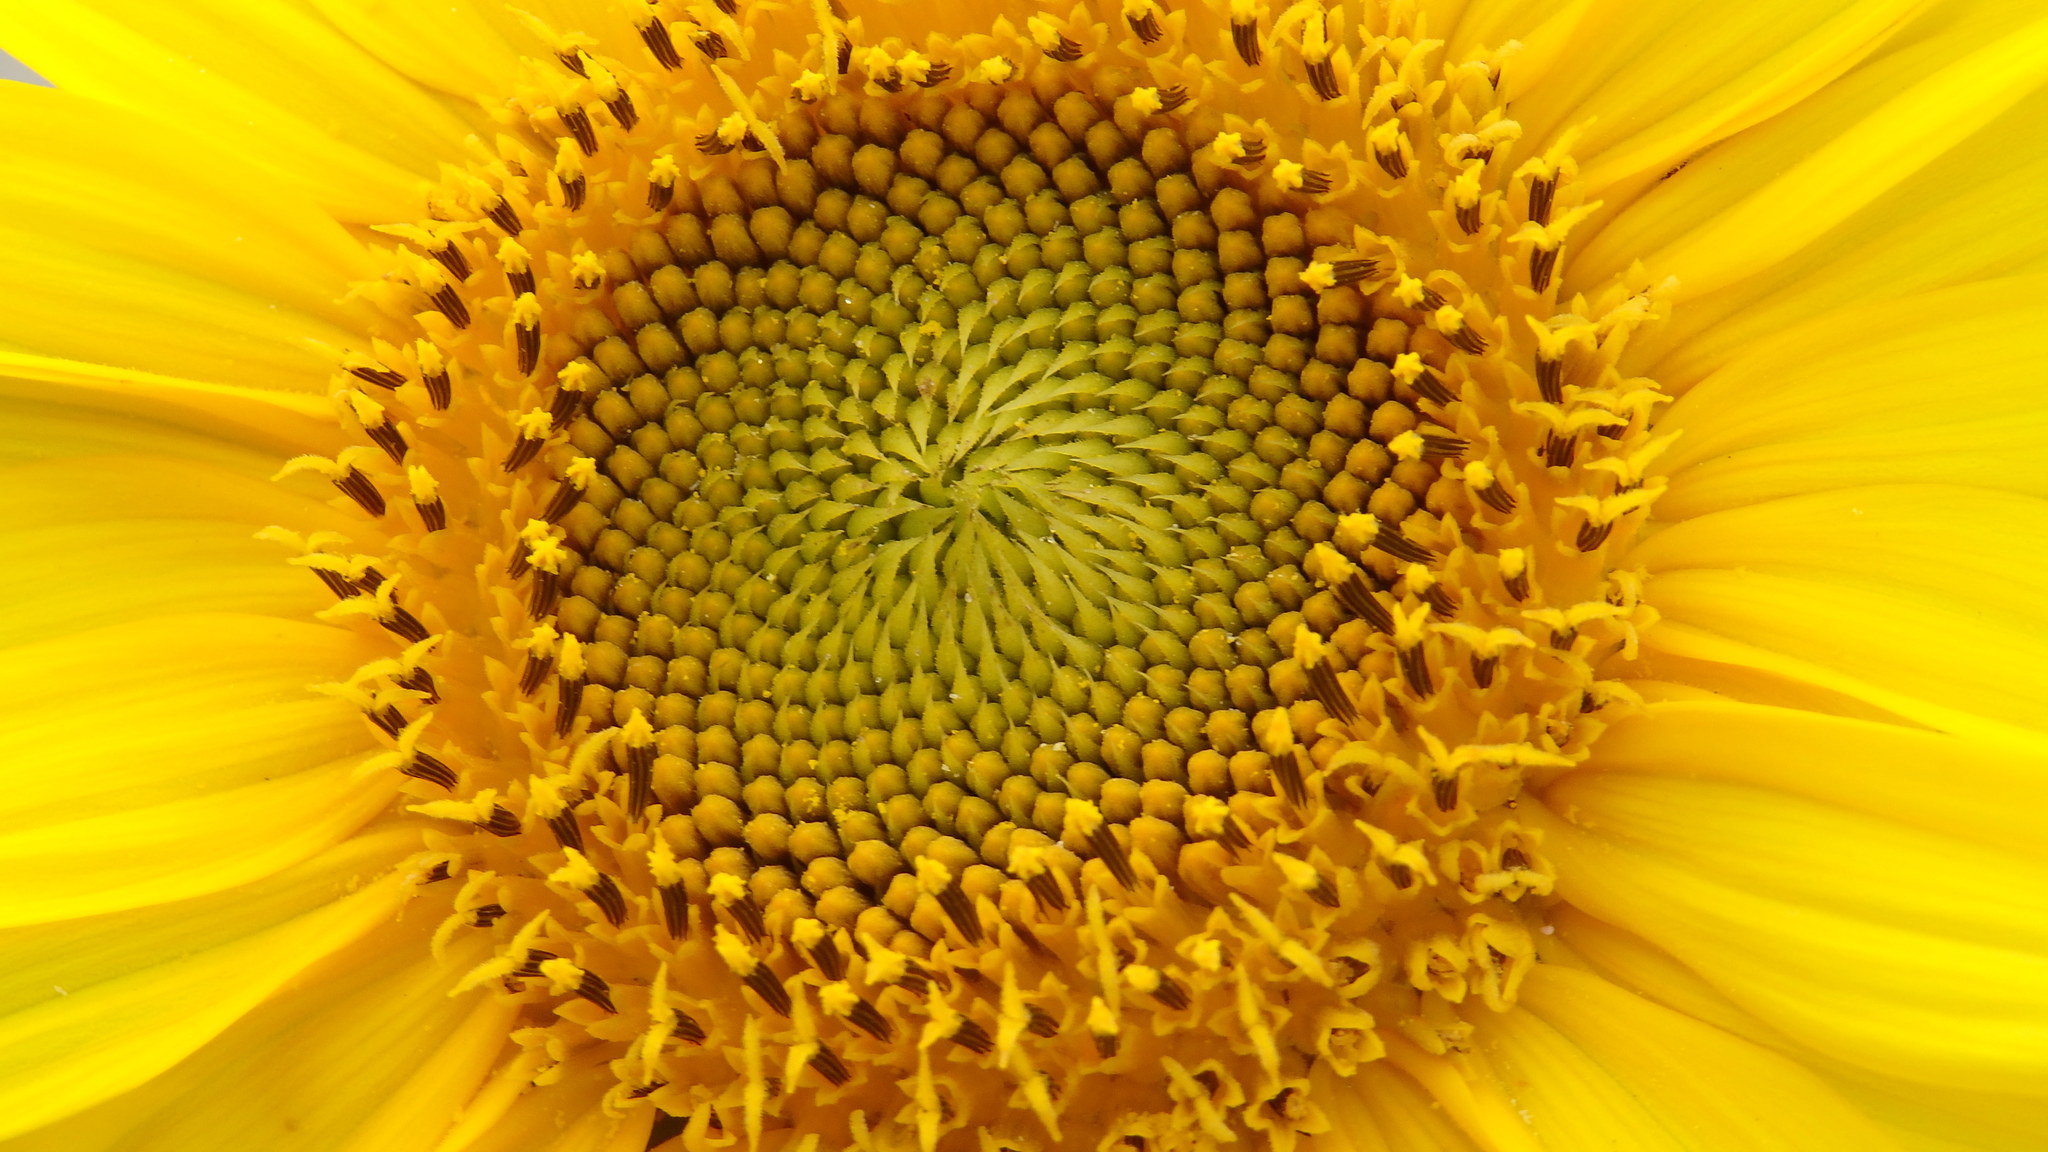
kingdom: Plantae
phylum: Tracheophyta
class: Magnoliopsida
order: Asterales
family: Asteraceae
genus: Helianthus
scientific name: Helianthus annuus
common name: Sunflower
